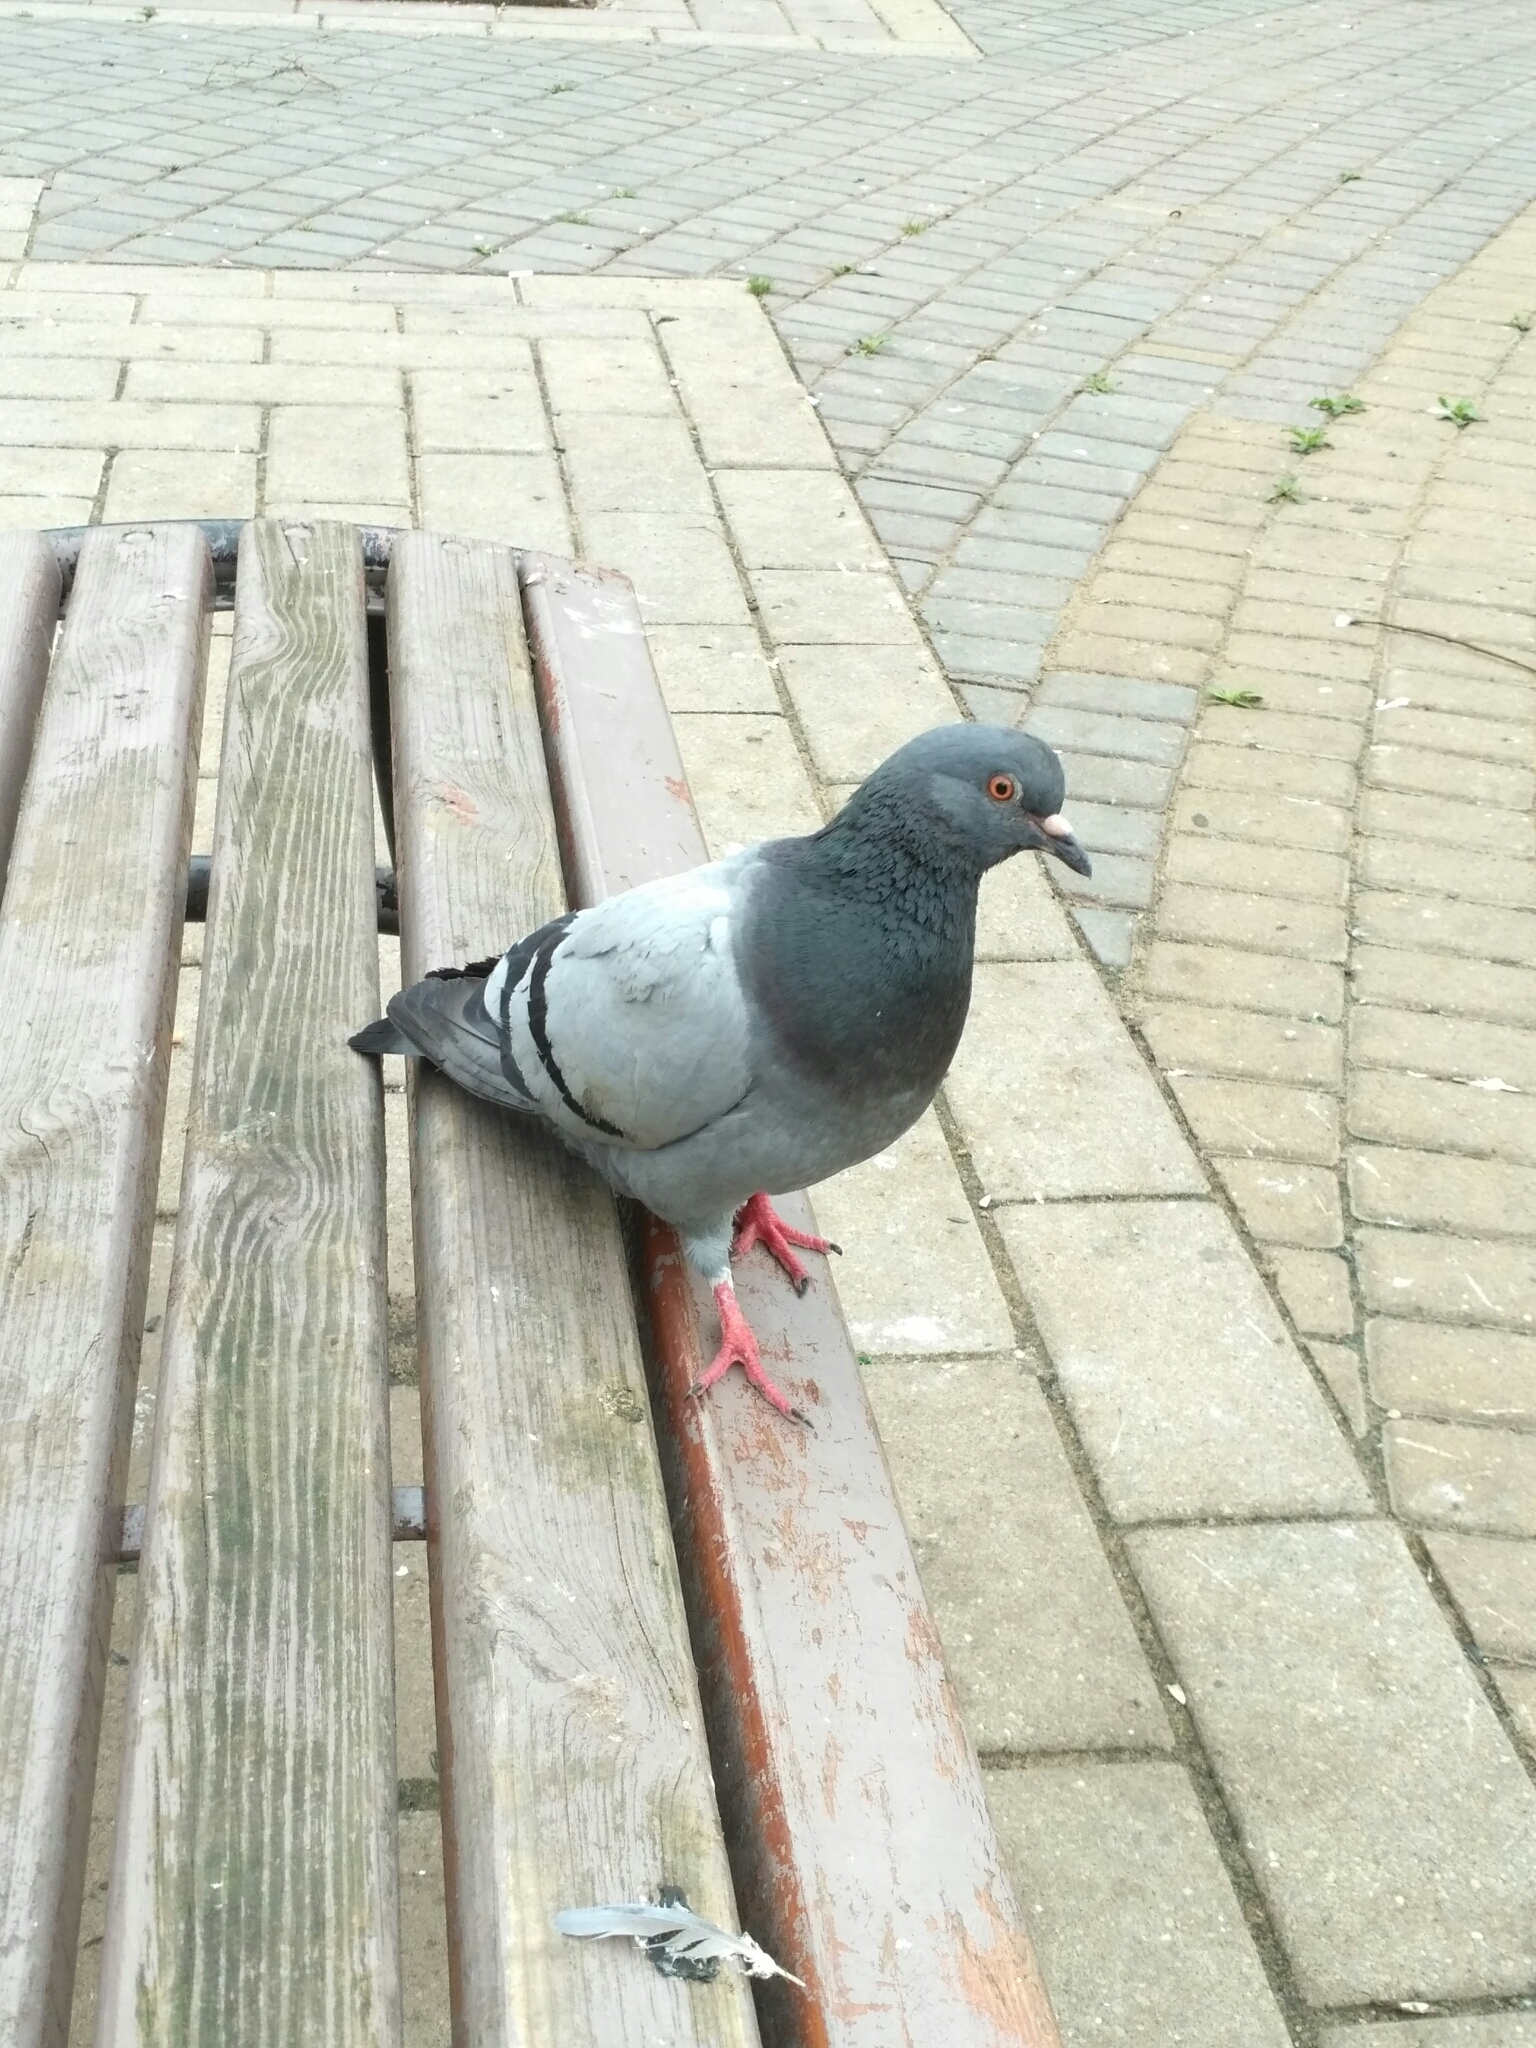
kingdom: Animalia
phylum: Chordata
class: Aves
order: Columbiformes
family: Columbidae
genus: Columba
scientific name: Columba livia
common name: Rock pigeon
